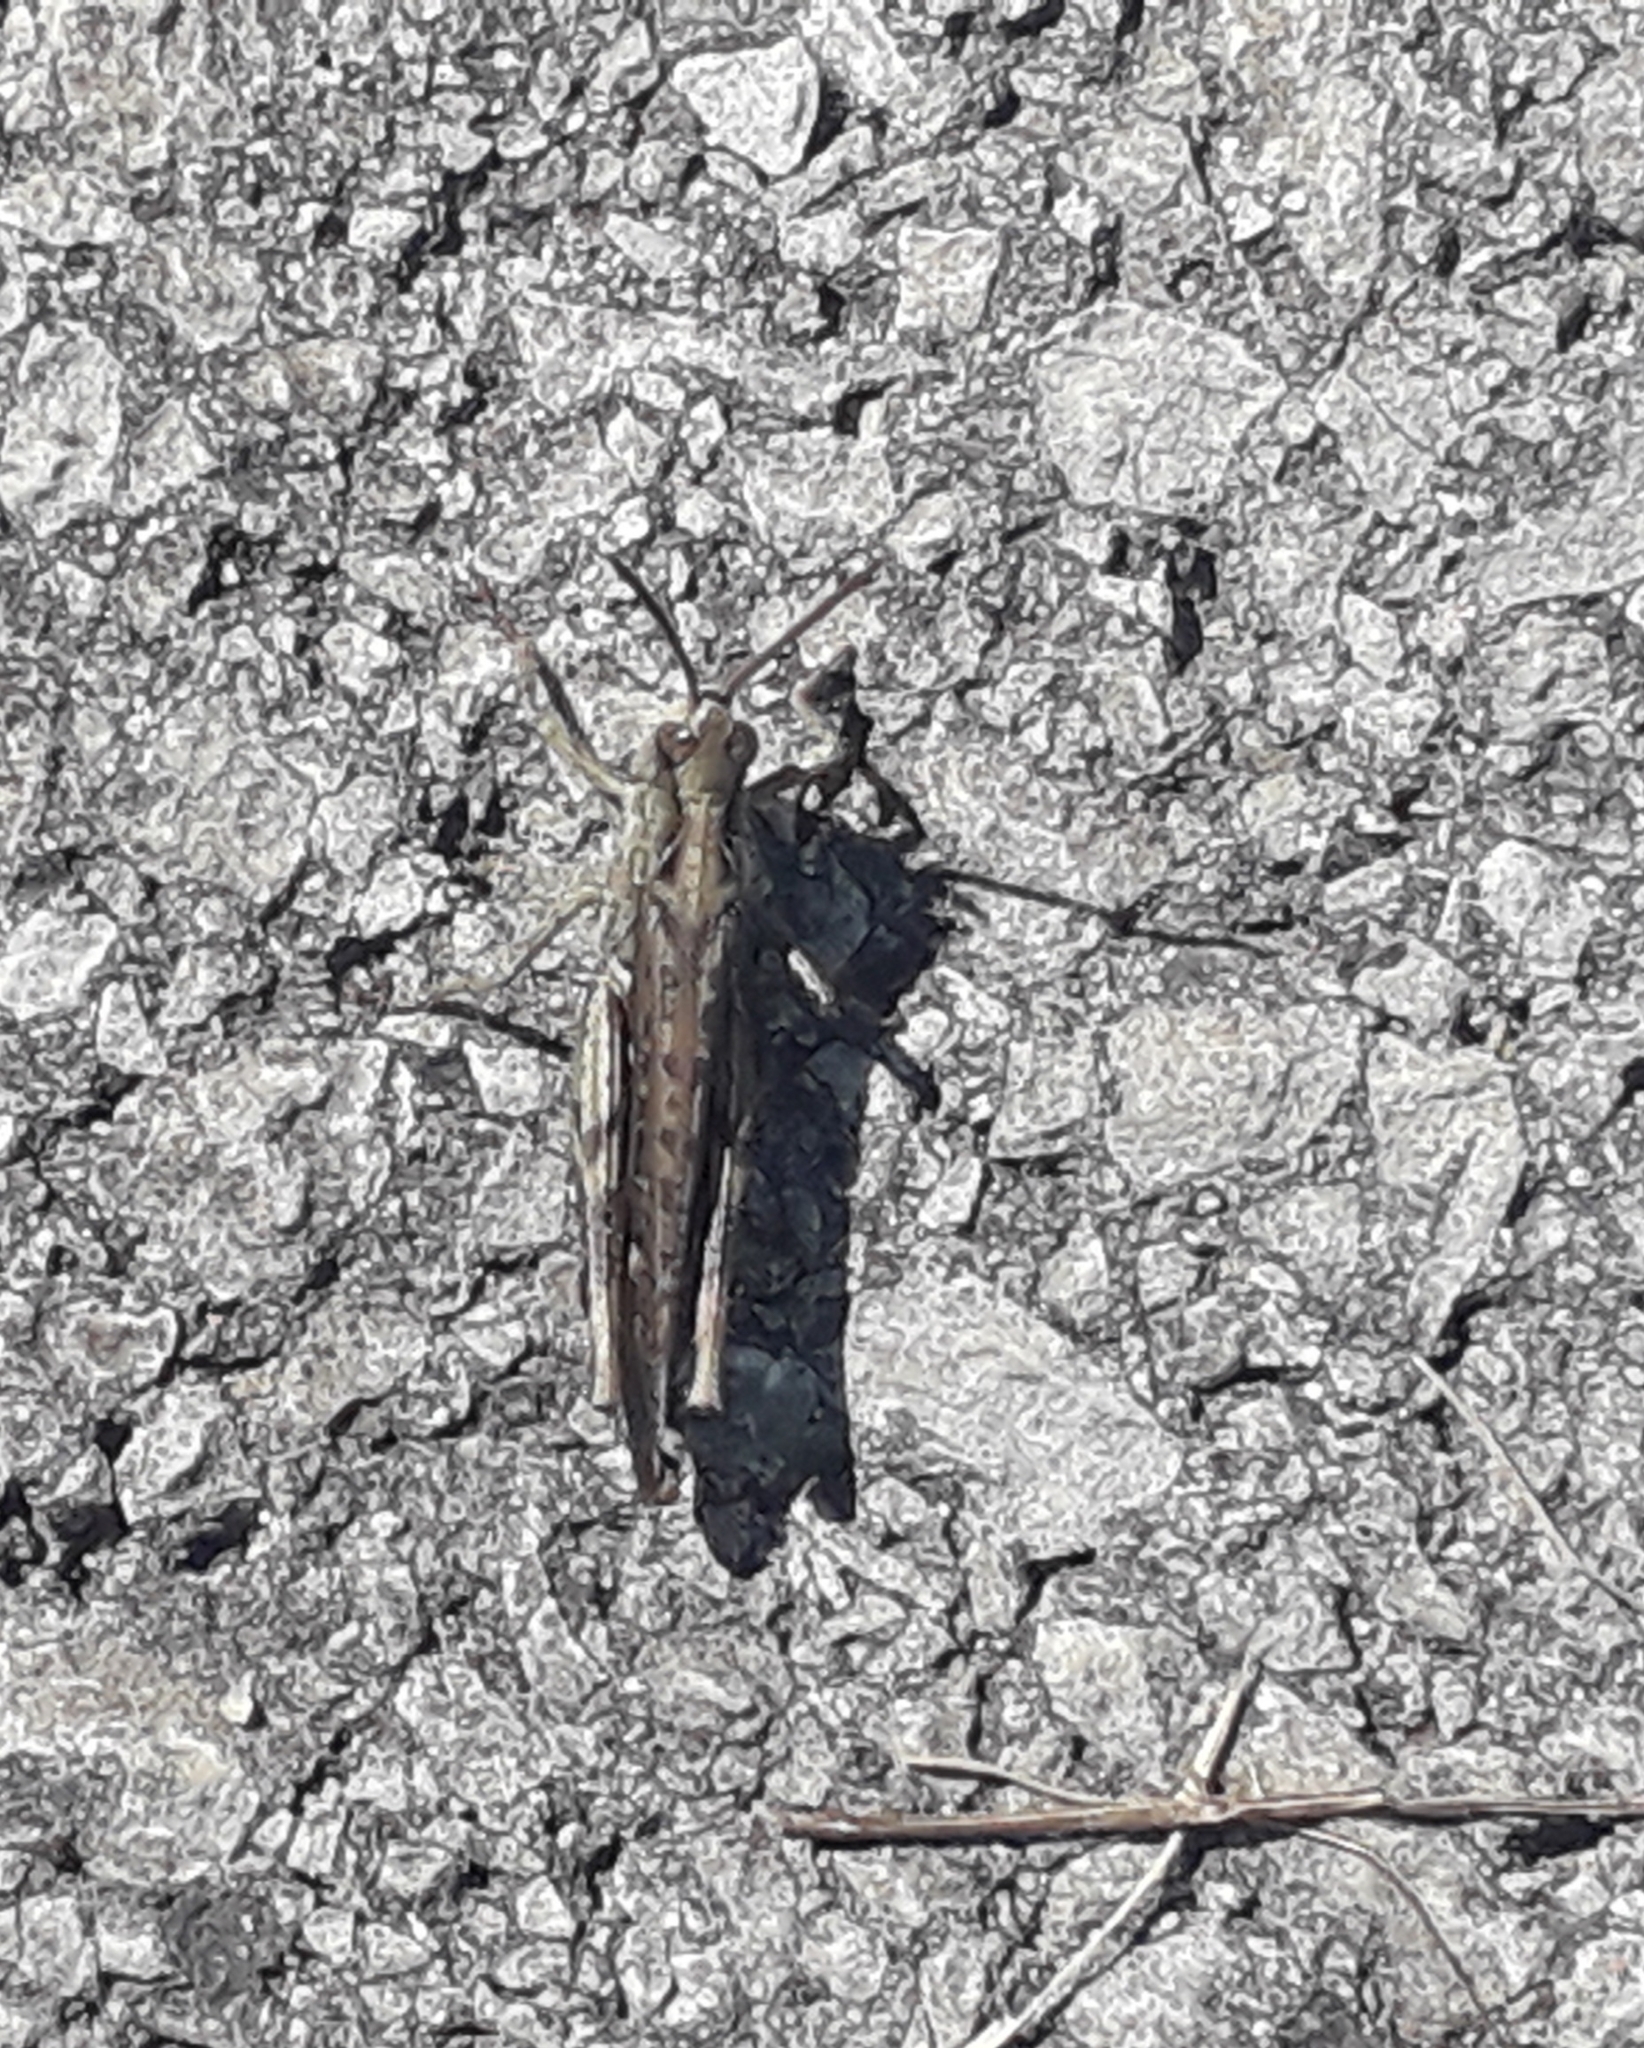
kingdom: Animalia
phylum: Arthropoda
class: Insecta
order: Orthoptera
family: Acrididae
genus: Chorthippus
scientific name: Chorthippus brunneus
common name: Field grasshopper
